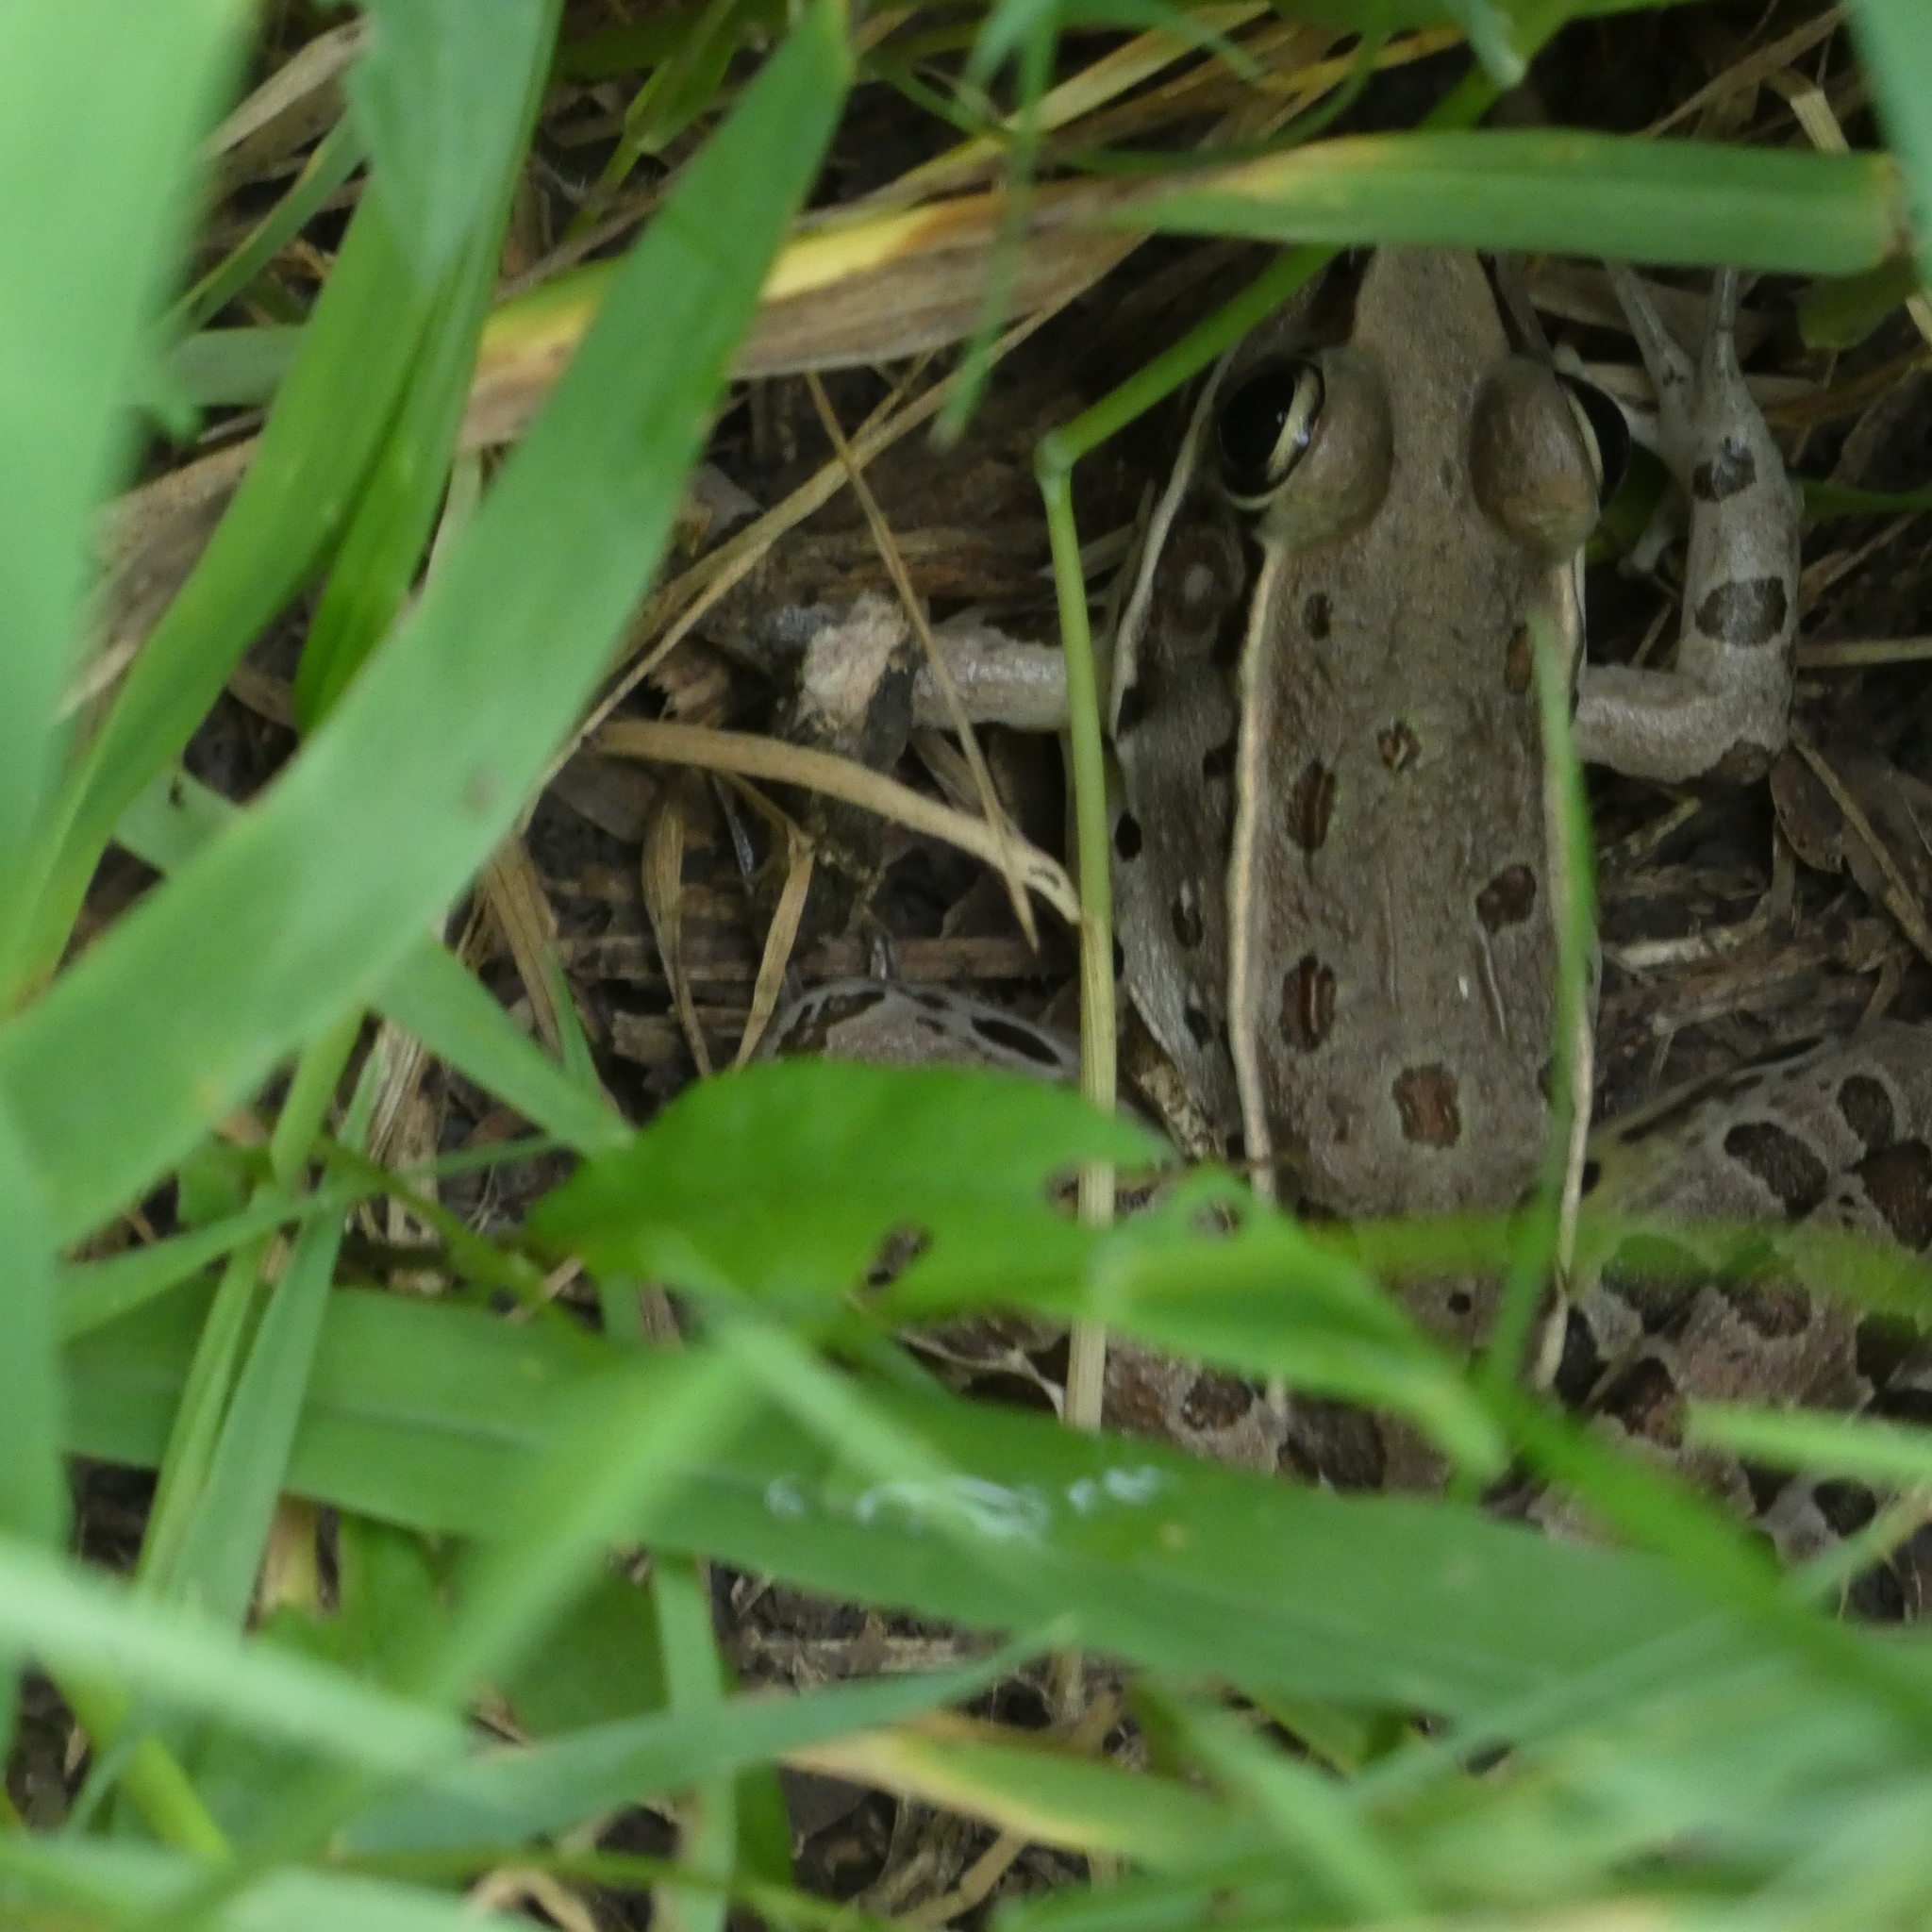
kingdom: Animalia
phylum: Chordata
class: Amphibia
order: Anura
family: Ranidae
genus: Lithobates
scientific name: Lithobates sphenocephalus
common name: Southern leopard frog
